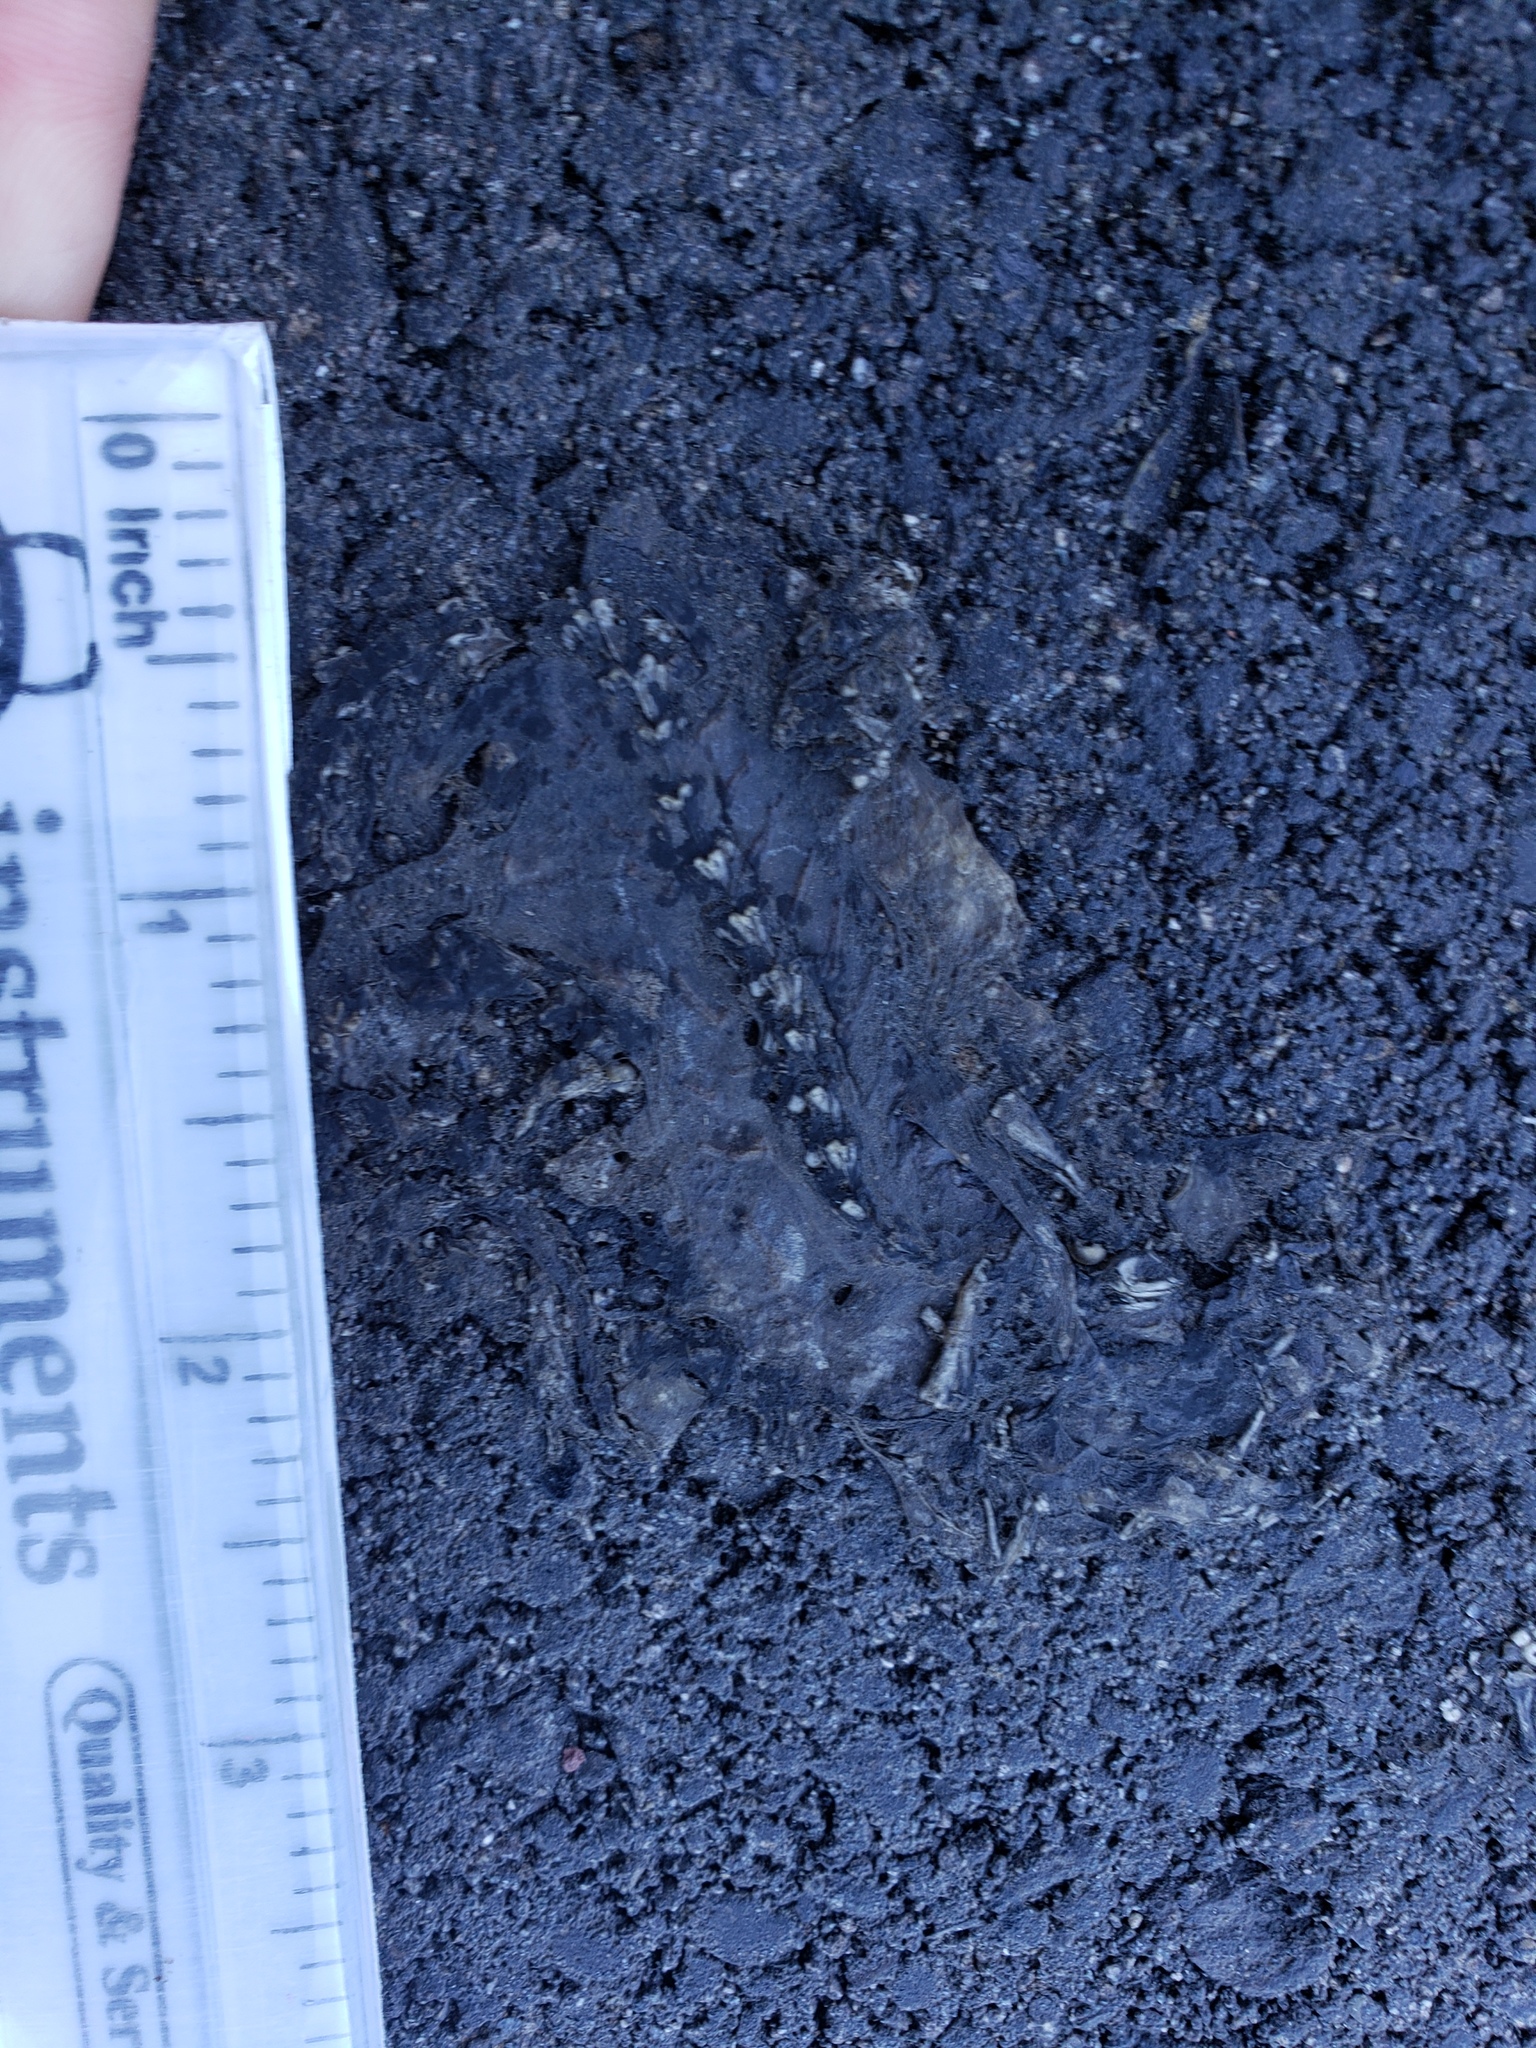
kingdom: Animalia
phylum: Chordata
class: Amphibia
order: Caudata
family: Salamandridae
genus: Taricha
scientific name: Taricha
